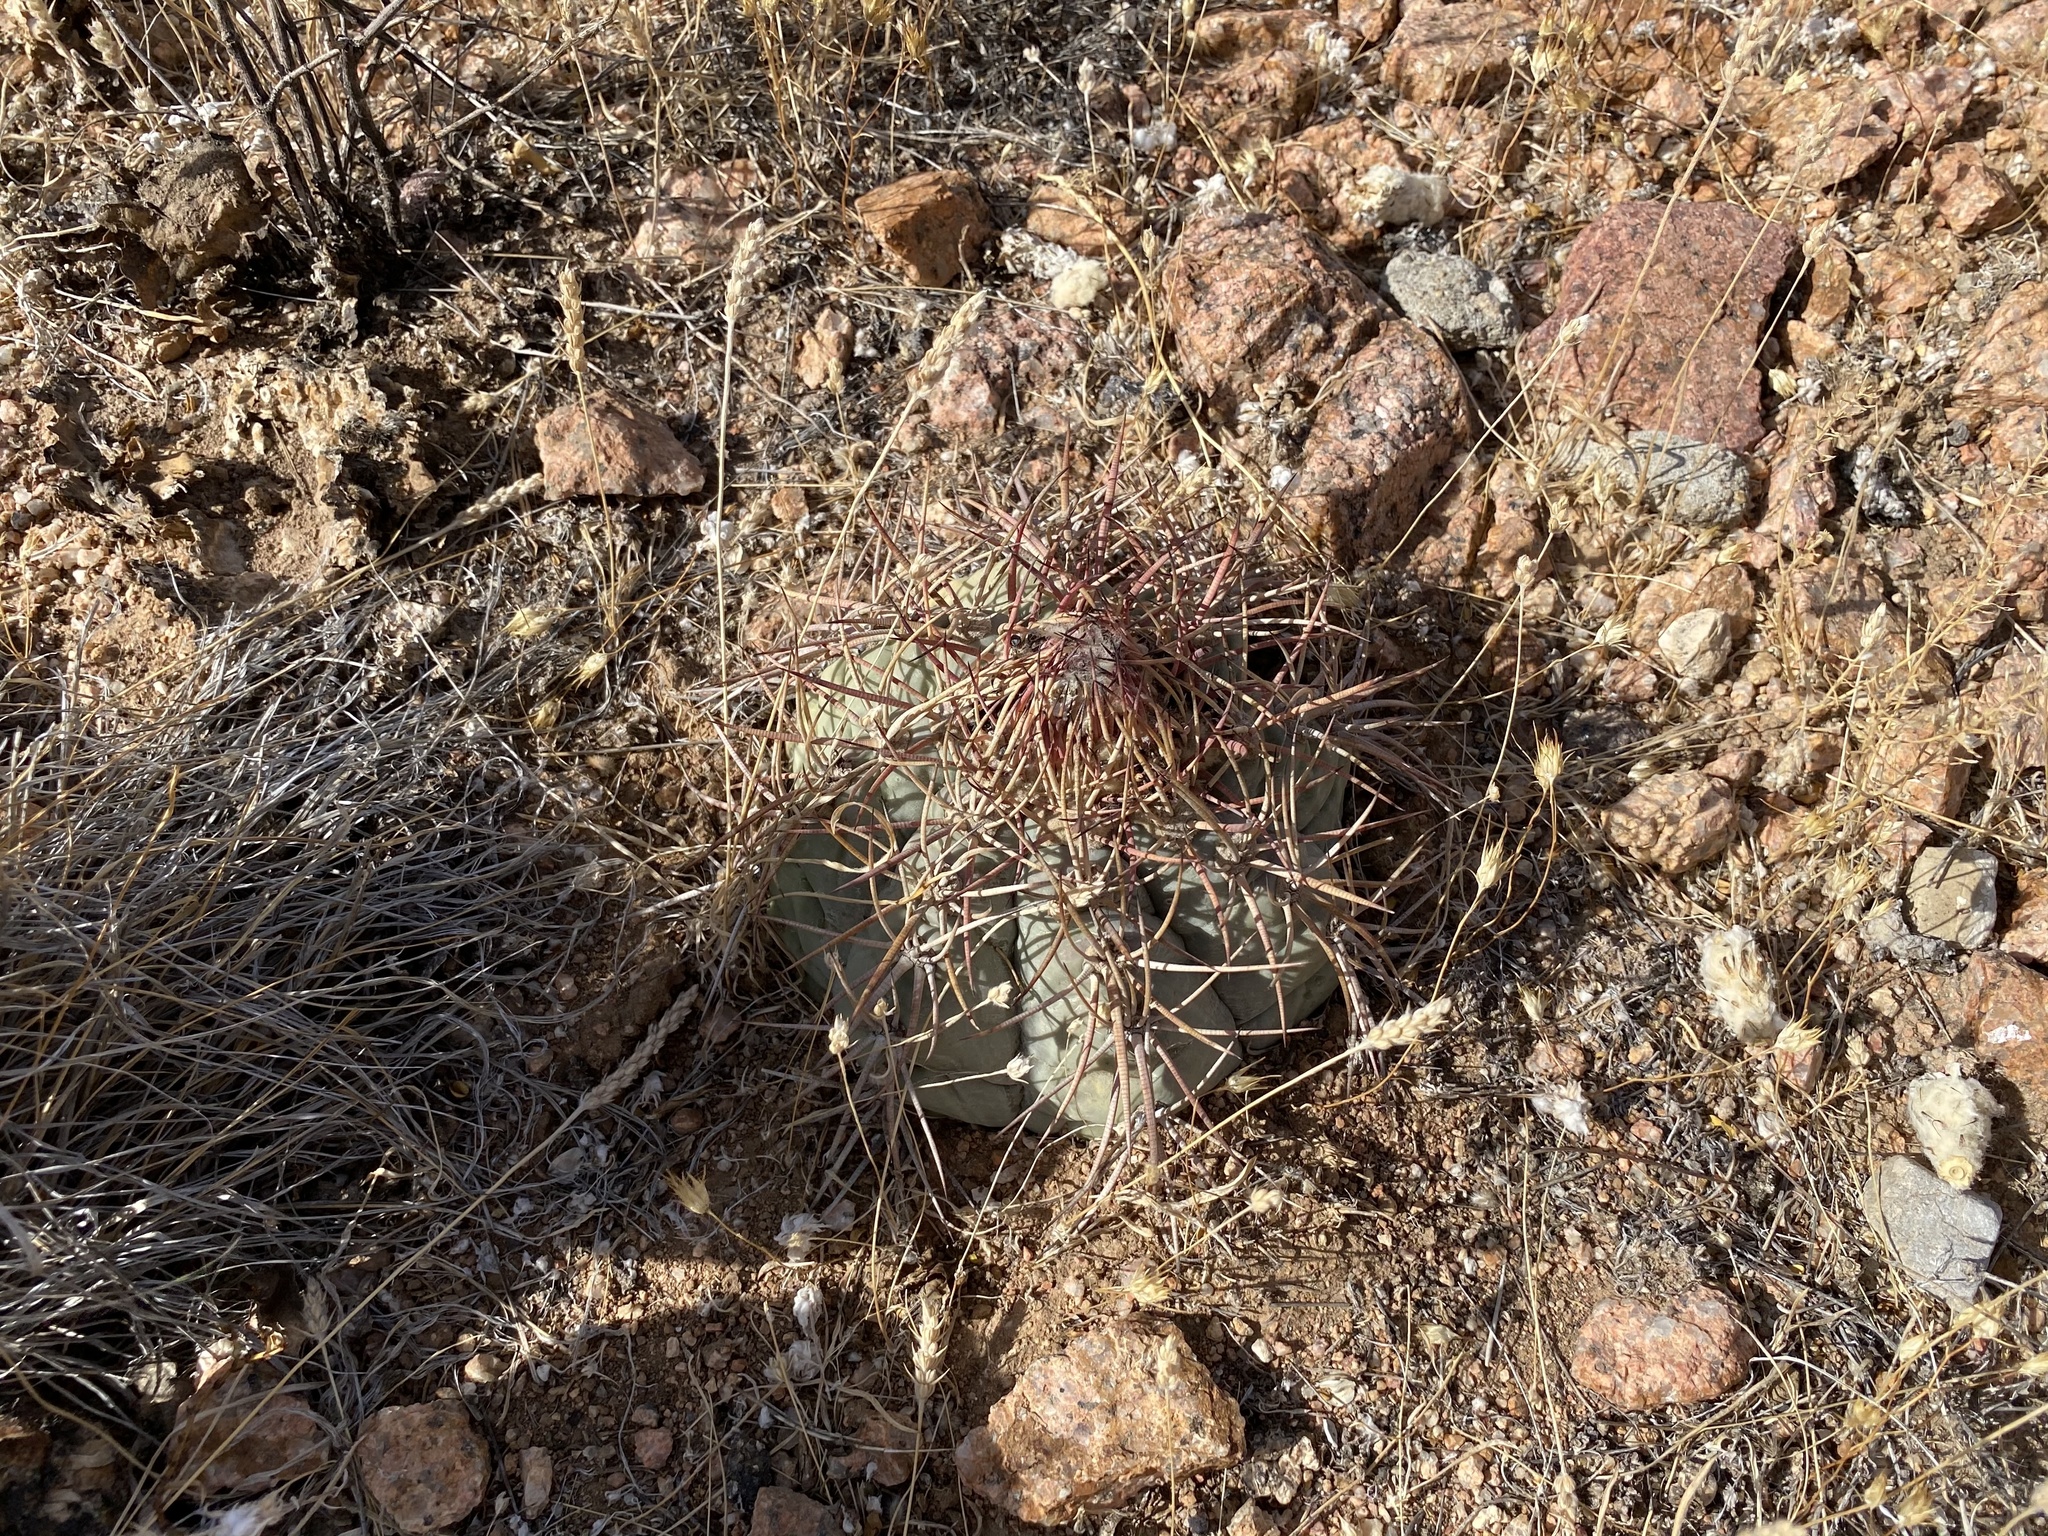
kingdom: Plantae
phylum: Tracheophyta
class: Magnoliopsida
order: Caryophyllales
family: Cactaceae
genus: Echinocactus
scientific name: Echinocactus horizonthalonius
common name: Devilshead
